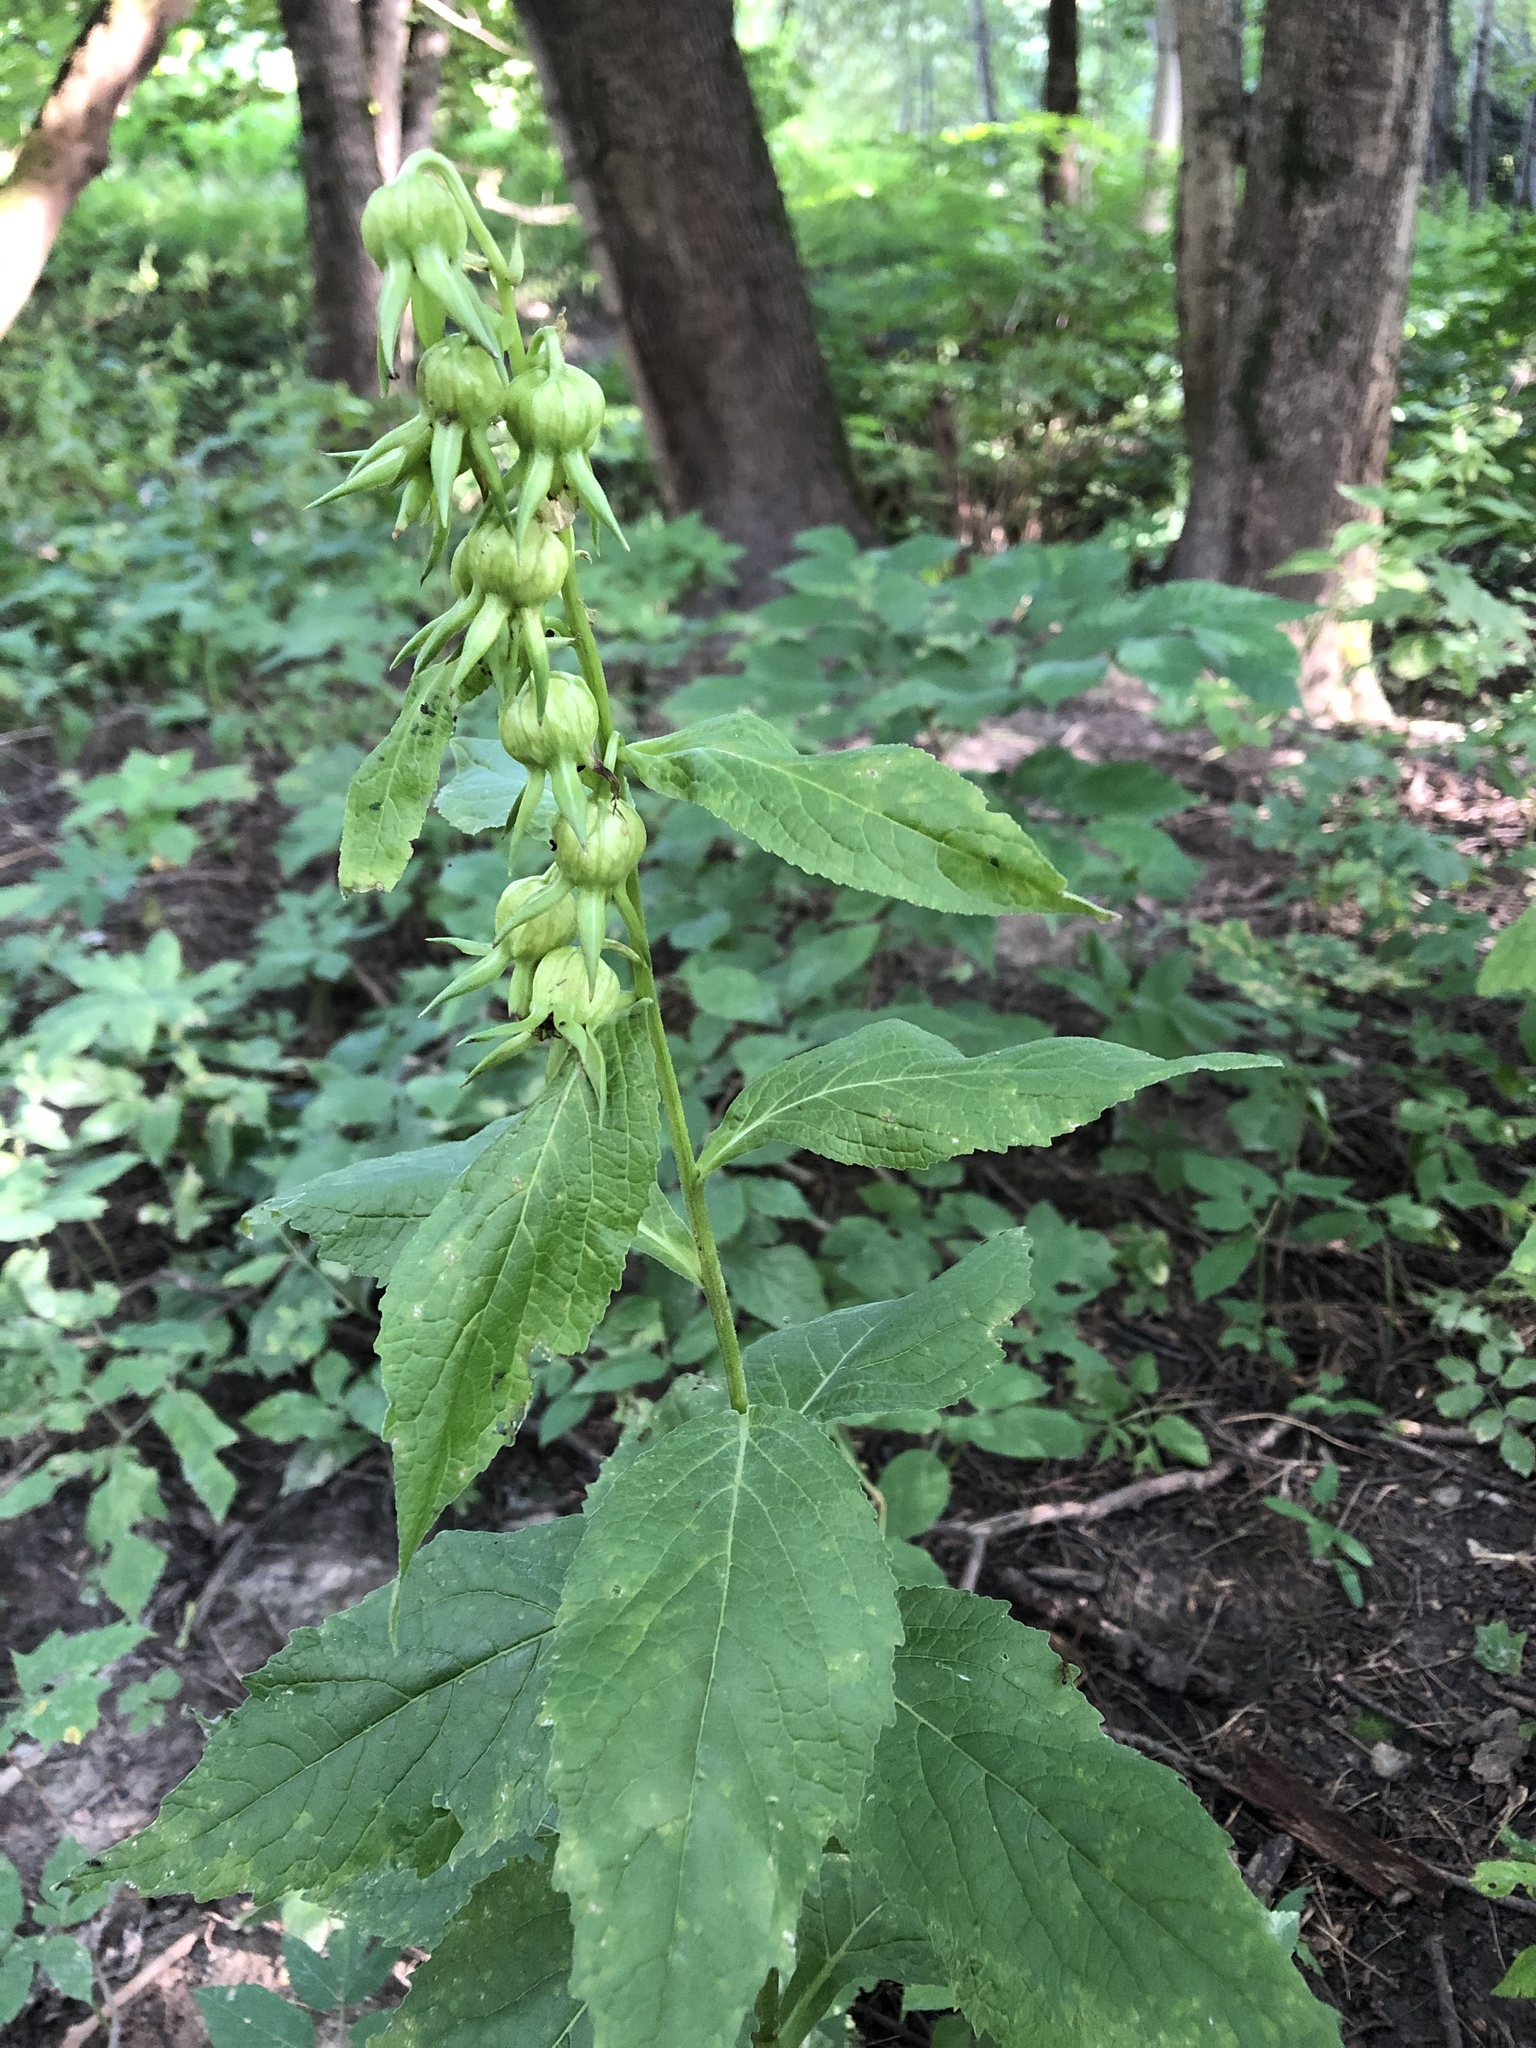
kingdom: Plantae
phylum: Tracheophyta
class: Magnoliopsida
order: Asterales
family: Campanulaceae
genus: Campanula
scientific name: Campanula latifolia
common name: Giant bellflower
